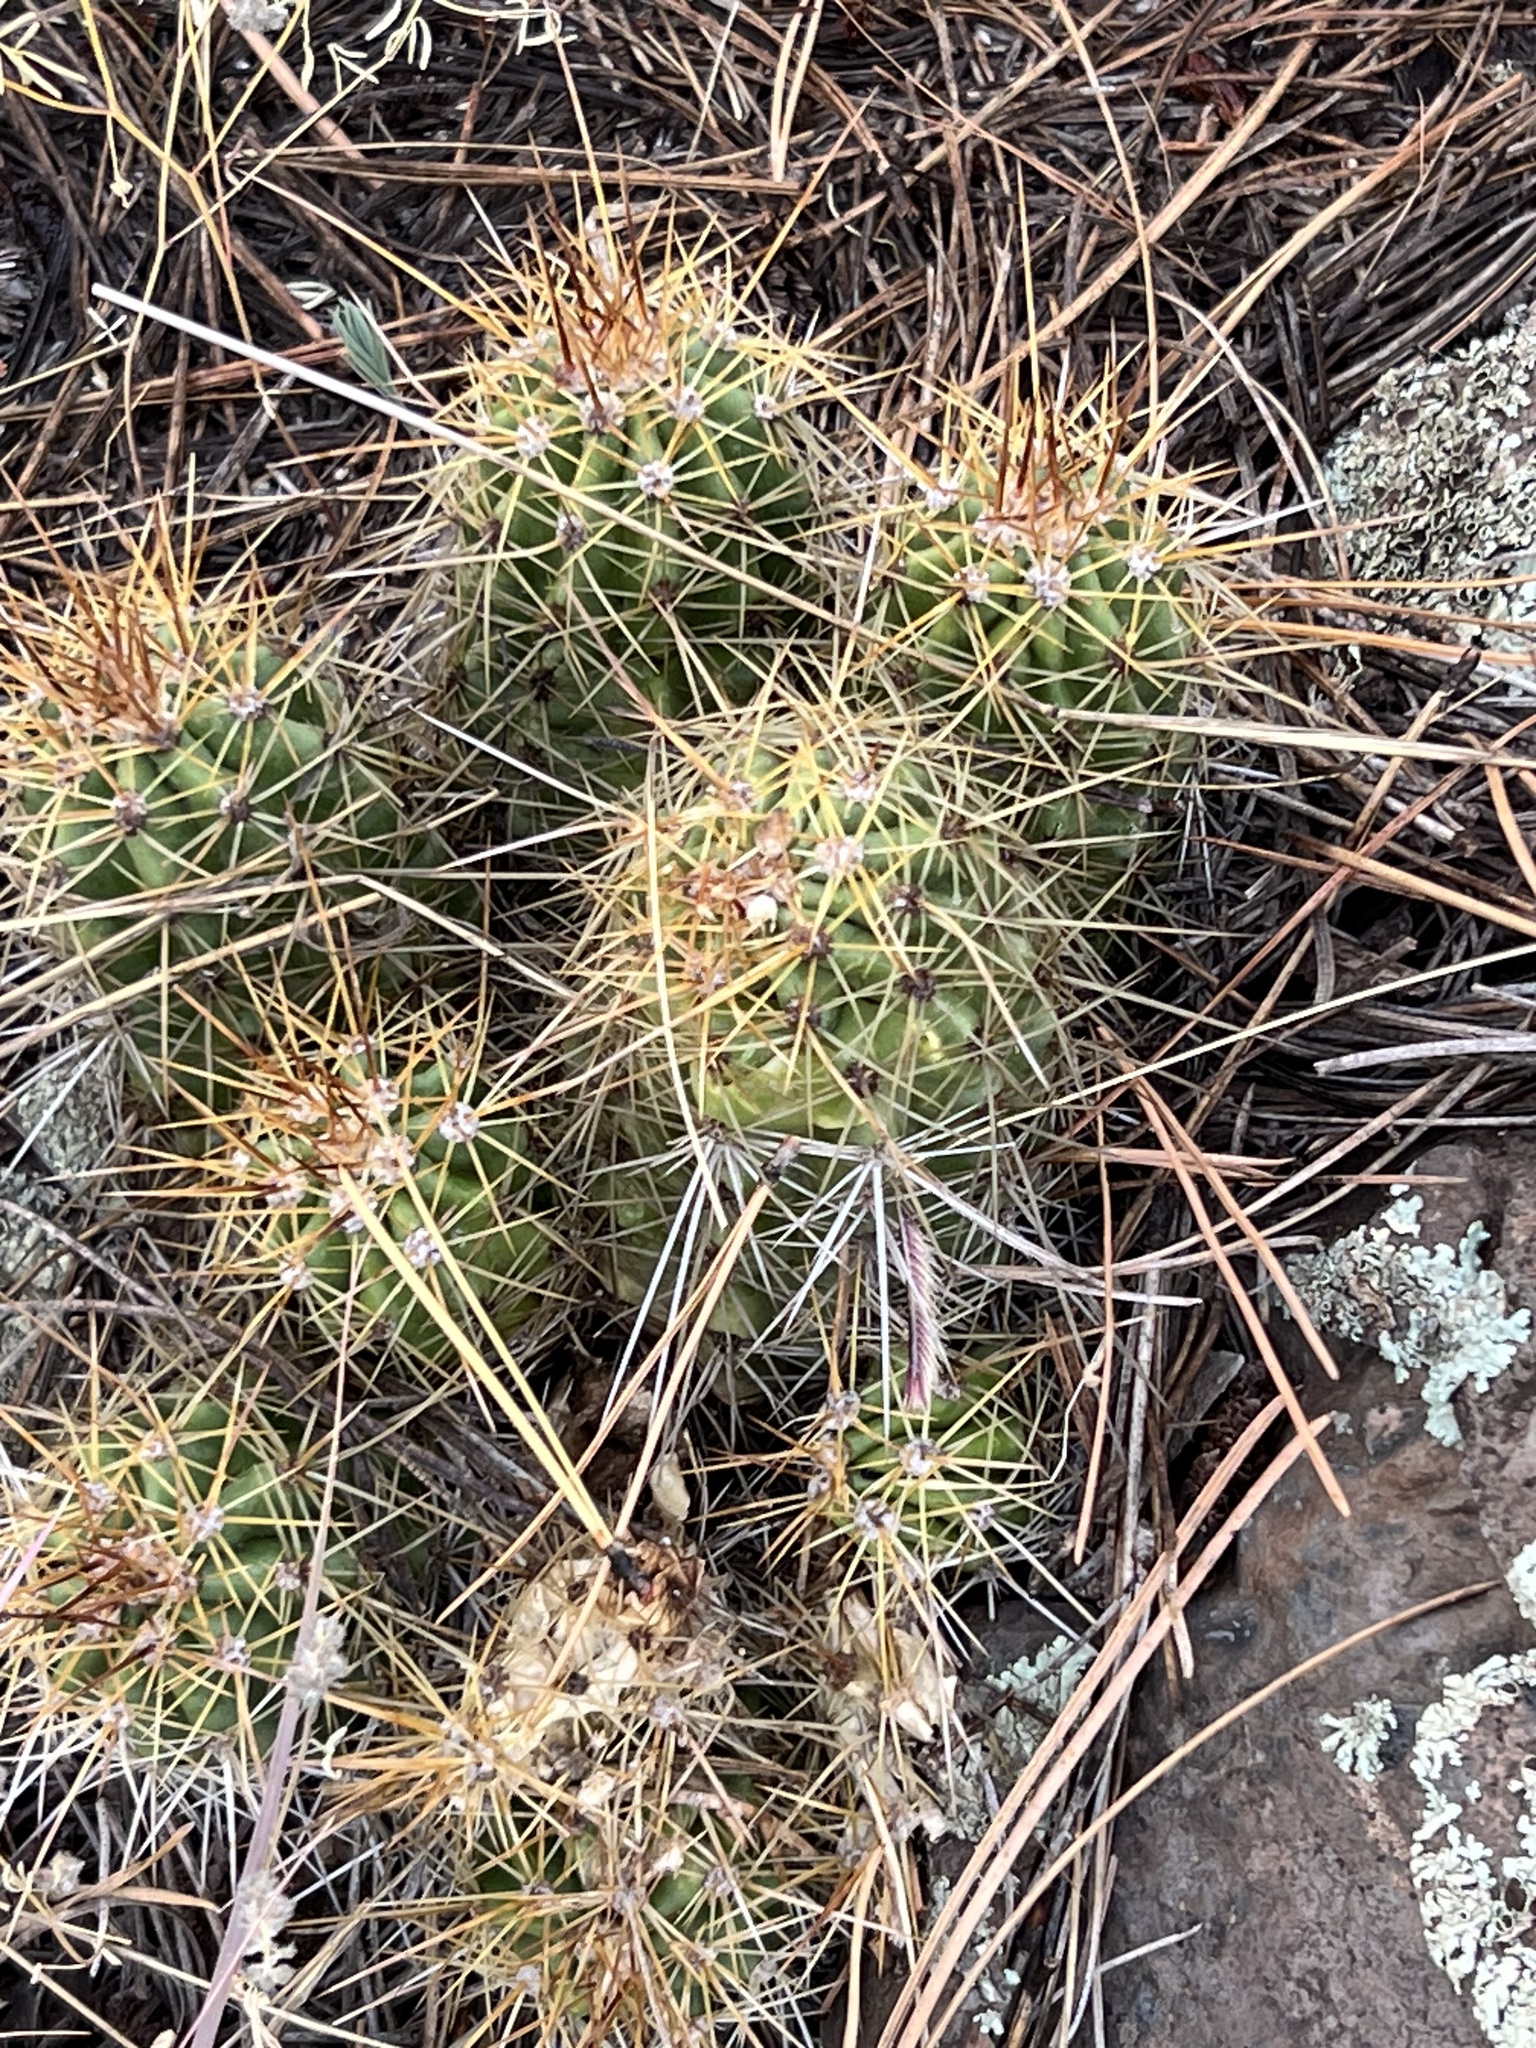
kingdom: Plantae
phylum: Tracheophyta
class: Magnoliopsida
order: Caryophyllales
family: Cactaceae
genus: Echinocereus
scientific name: Echinocereus bakeri
